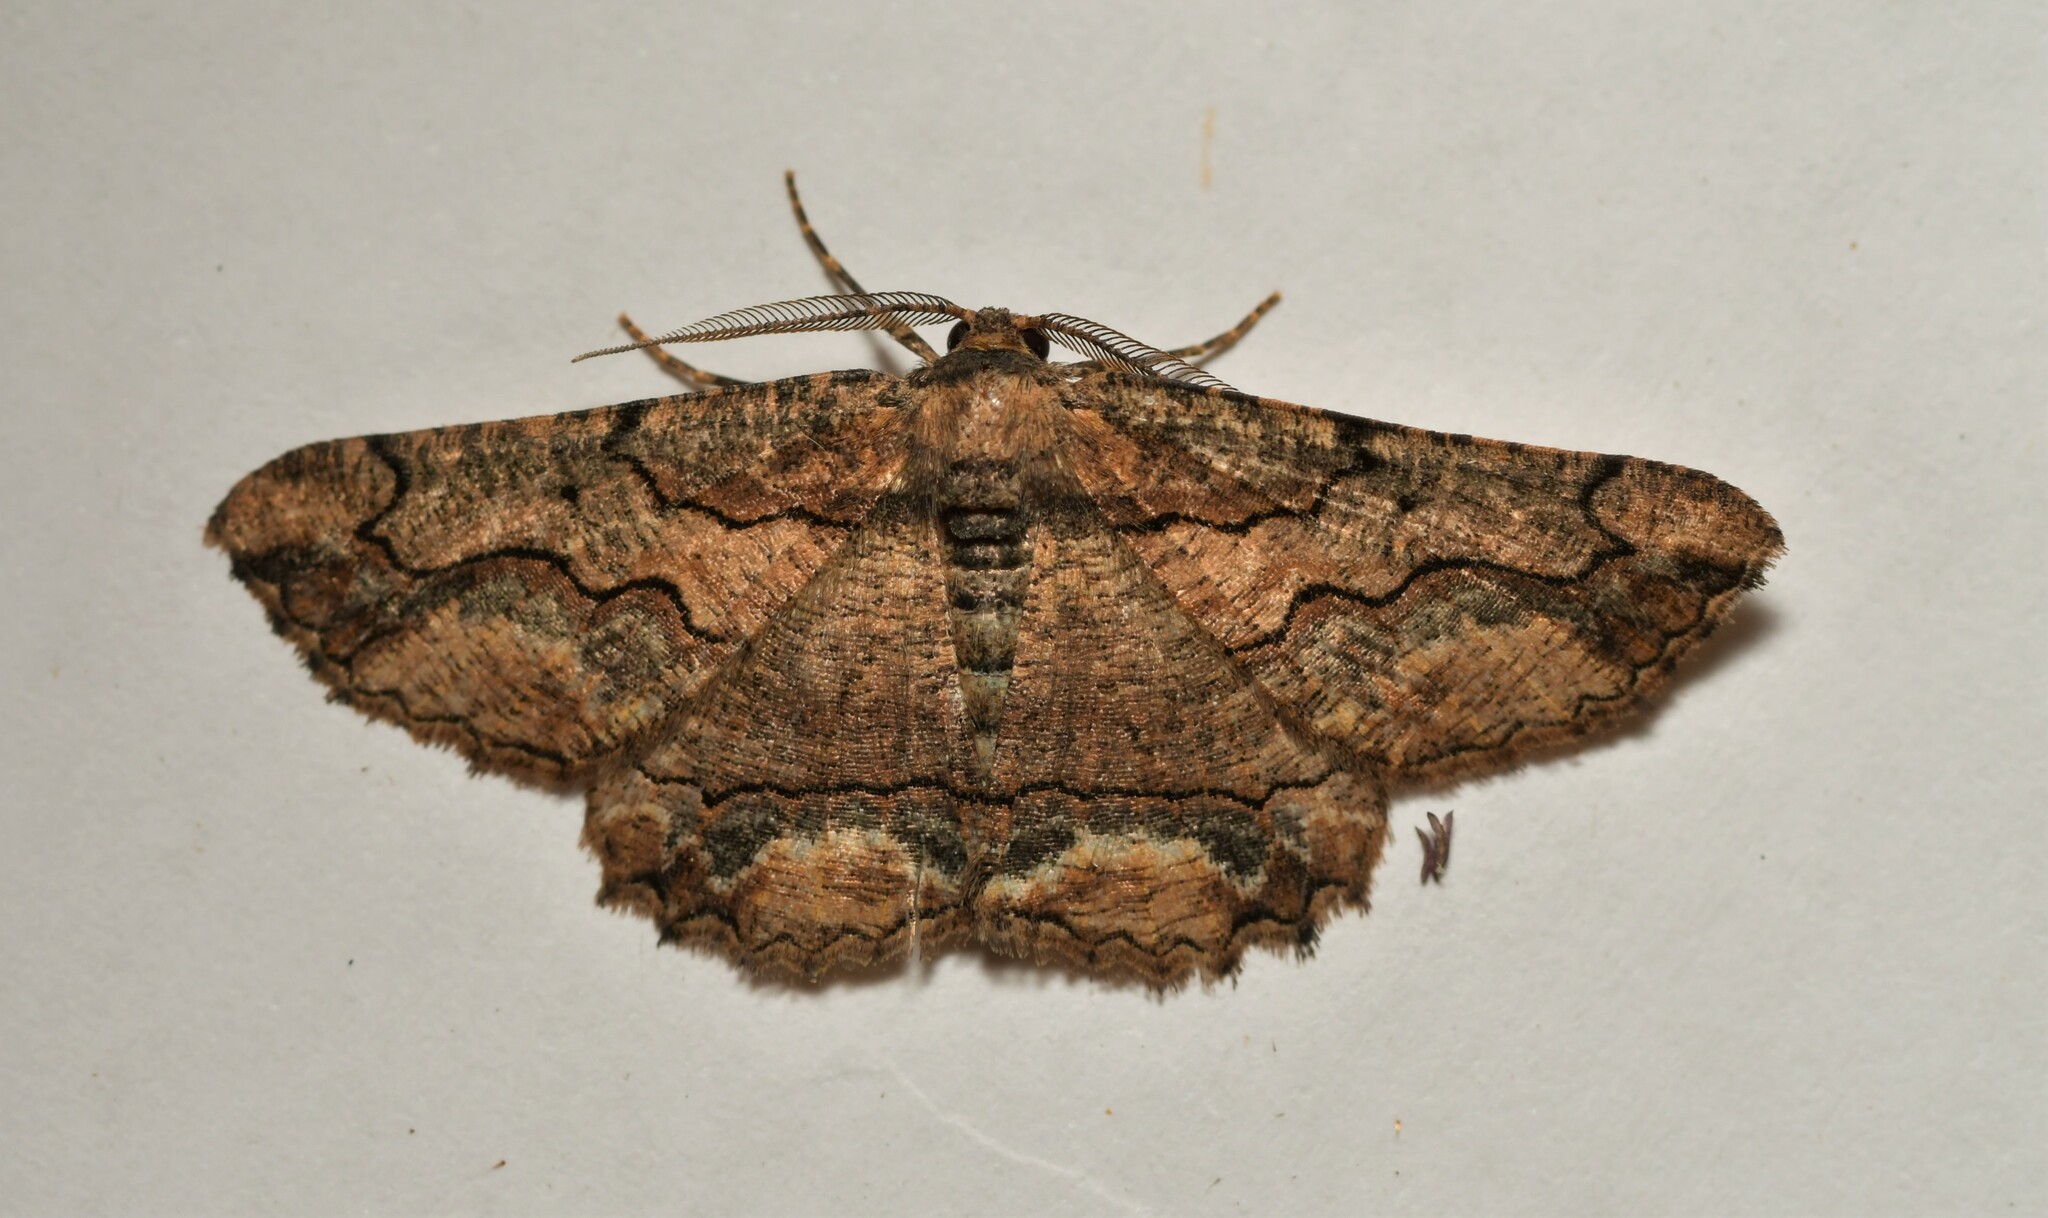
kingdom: Animalia
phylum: Arthropoda
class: Insecta
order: Lepidoptera
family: Geometridae
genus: Menophra
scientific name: Menophra japygiaria
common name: Brassy waved umber
